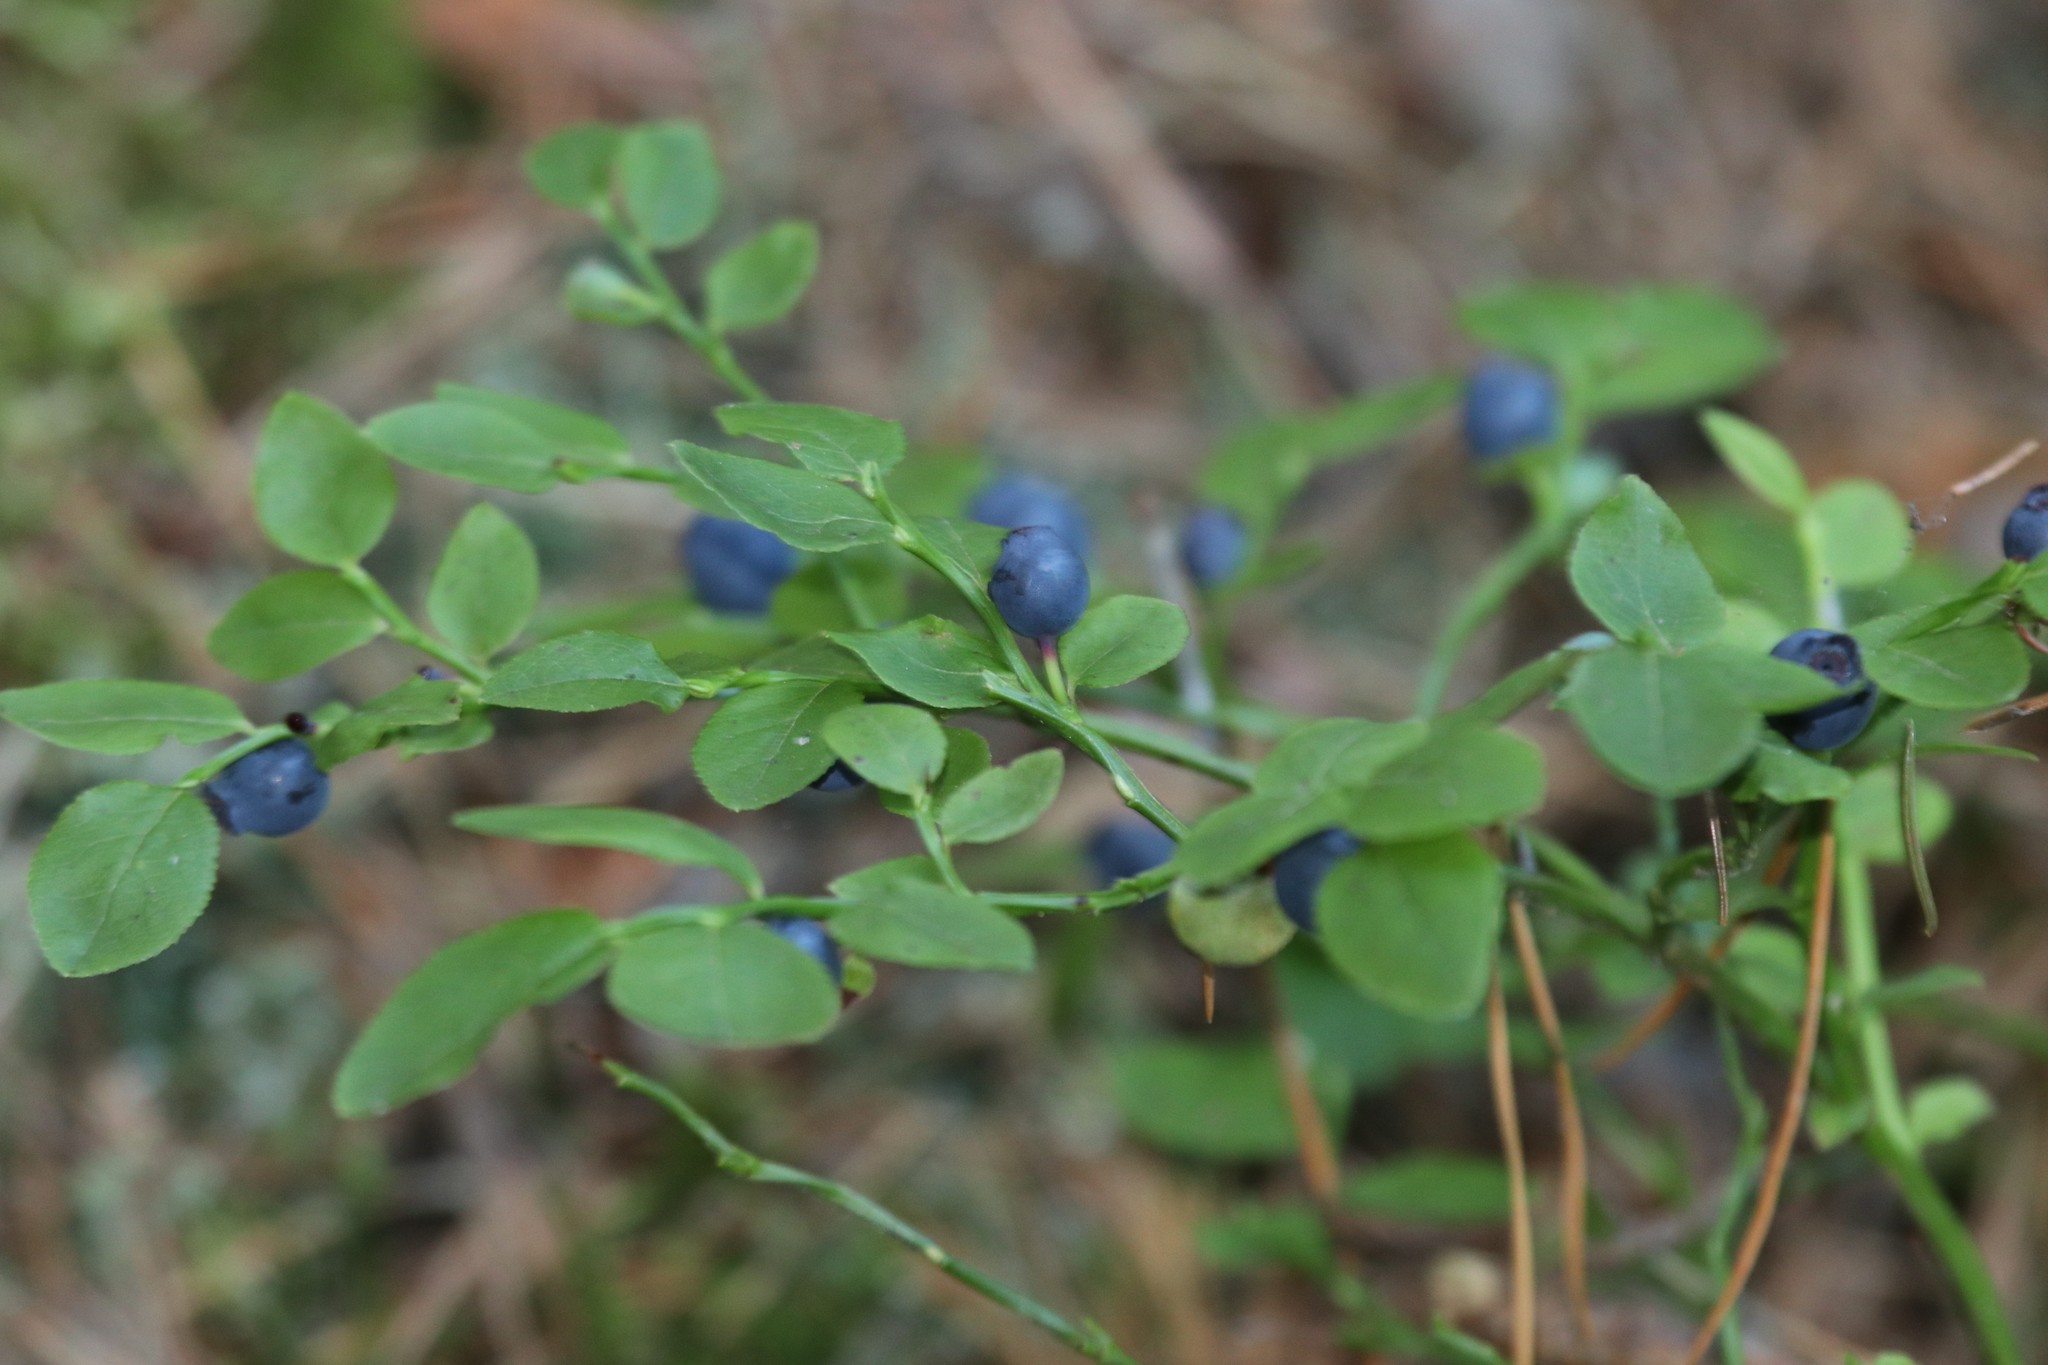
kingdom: Plantae
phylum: Tracheophyta
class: Magnoliopsida
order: Ericales
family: Ericaceae
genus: Vaccinium
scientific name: Vaccinium myrtillus
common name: Bilberry
